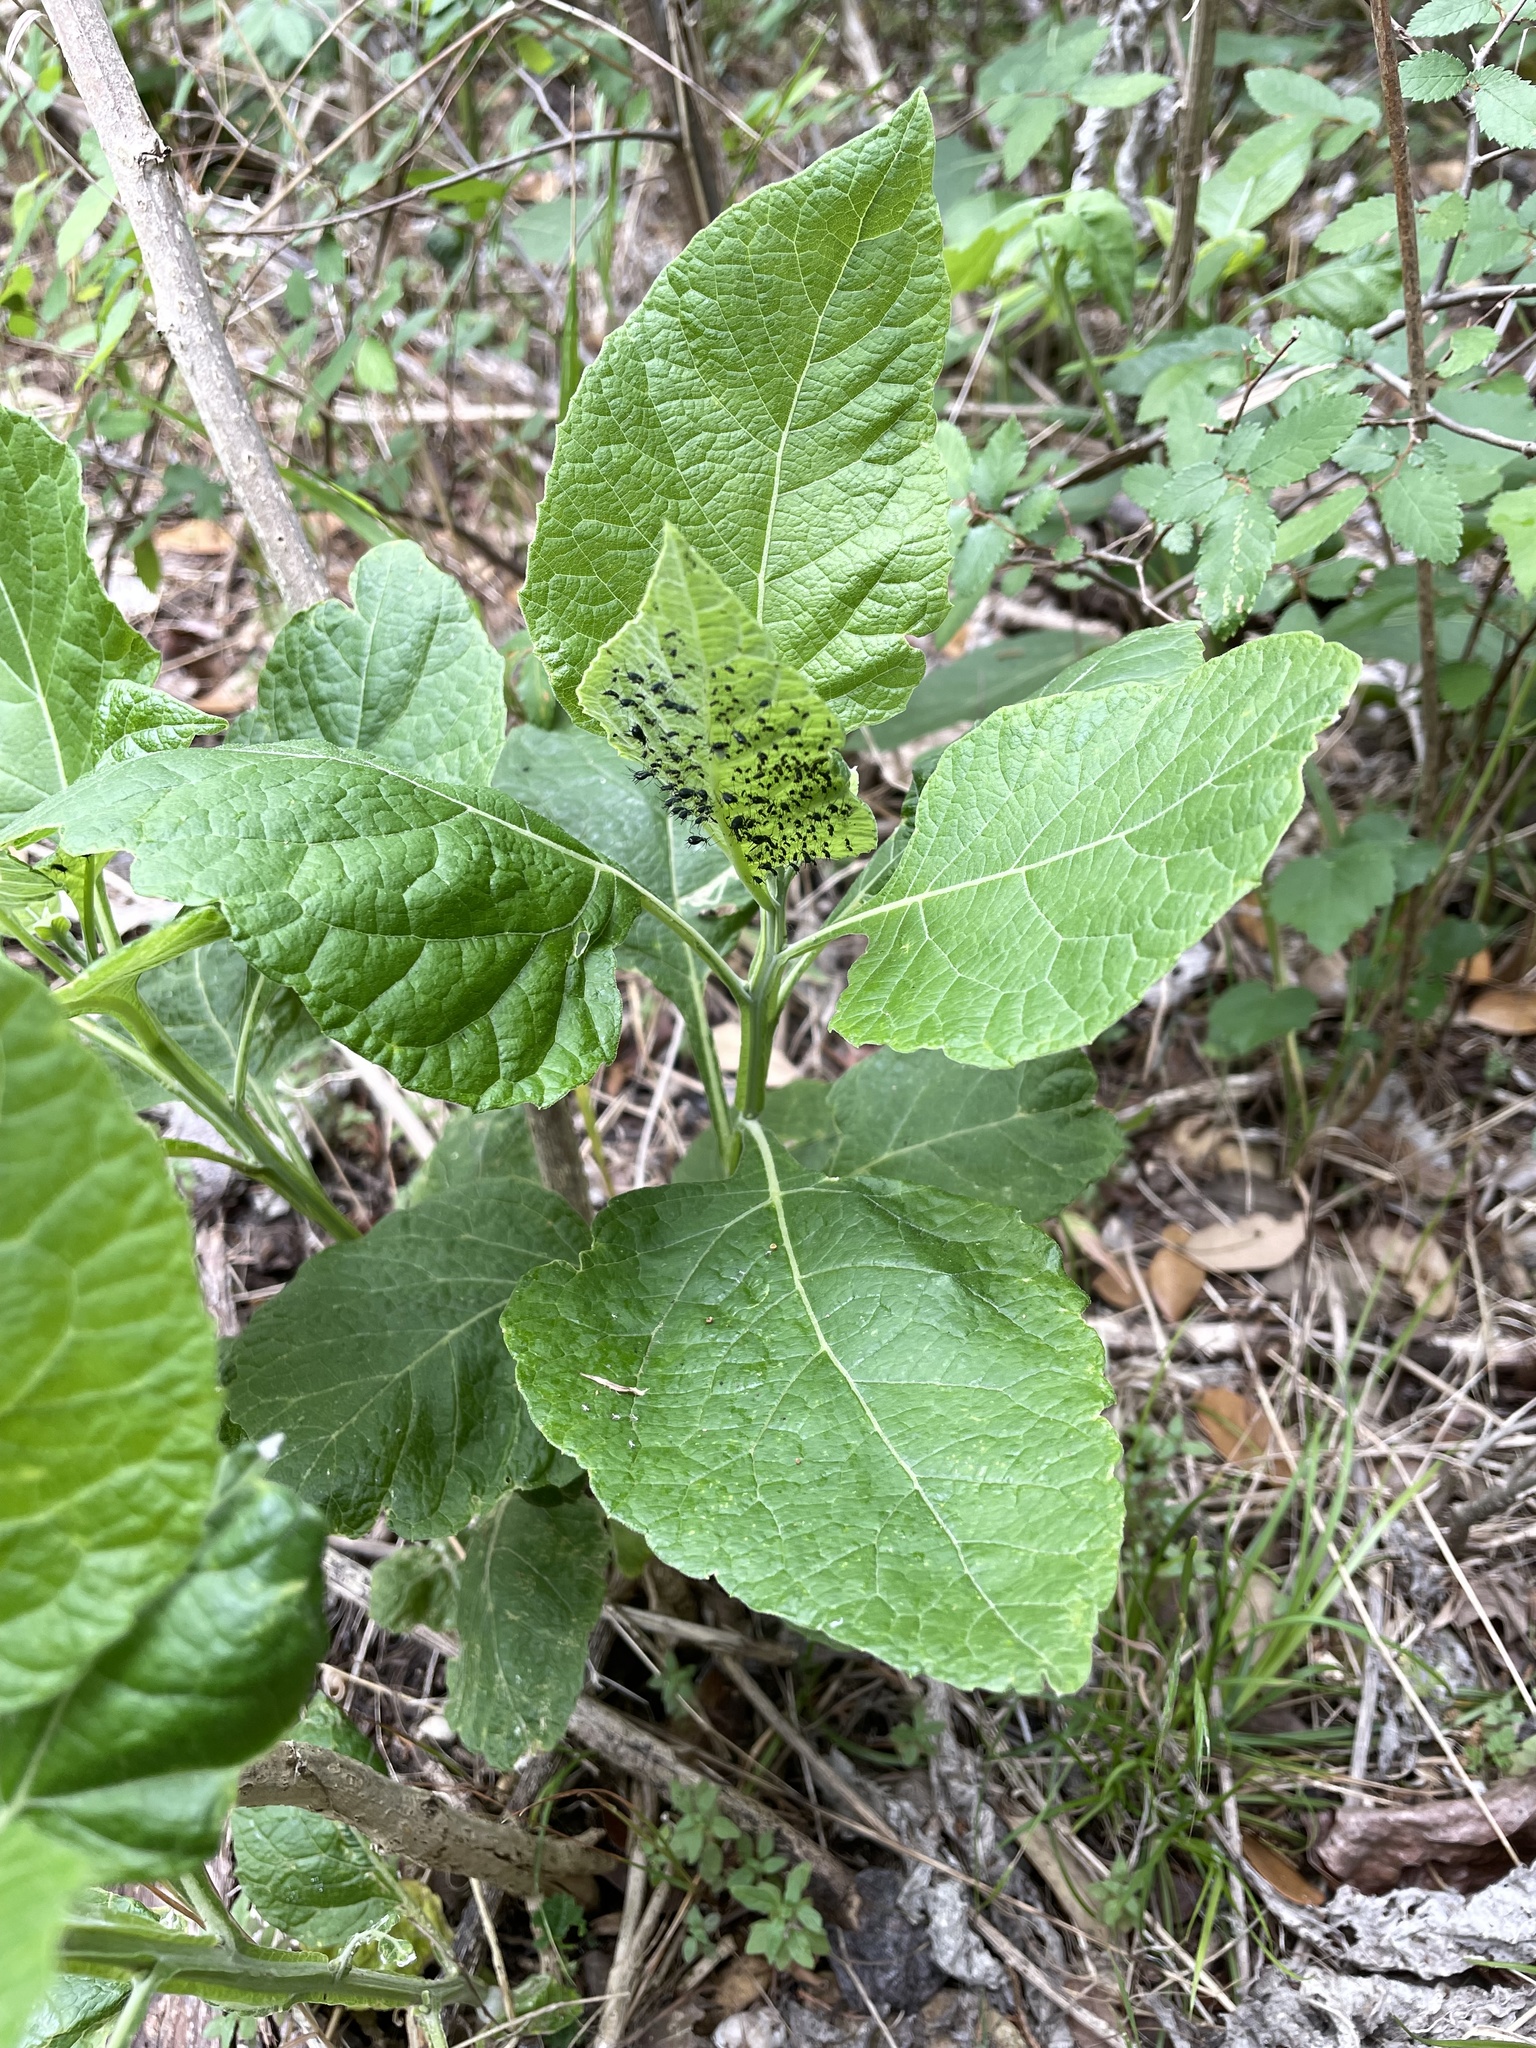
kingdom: Animalia
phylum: Arthropoda
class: Insecta
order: Hemiptera
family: Aphididae
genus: Uroleucon
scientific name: Uroleucon verbesinae
